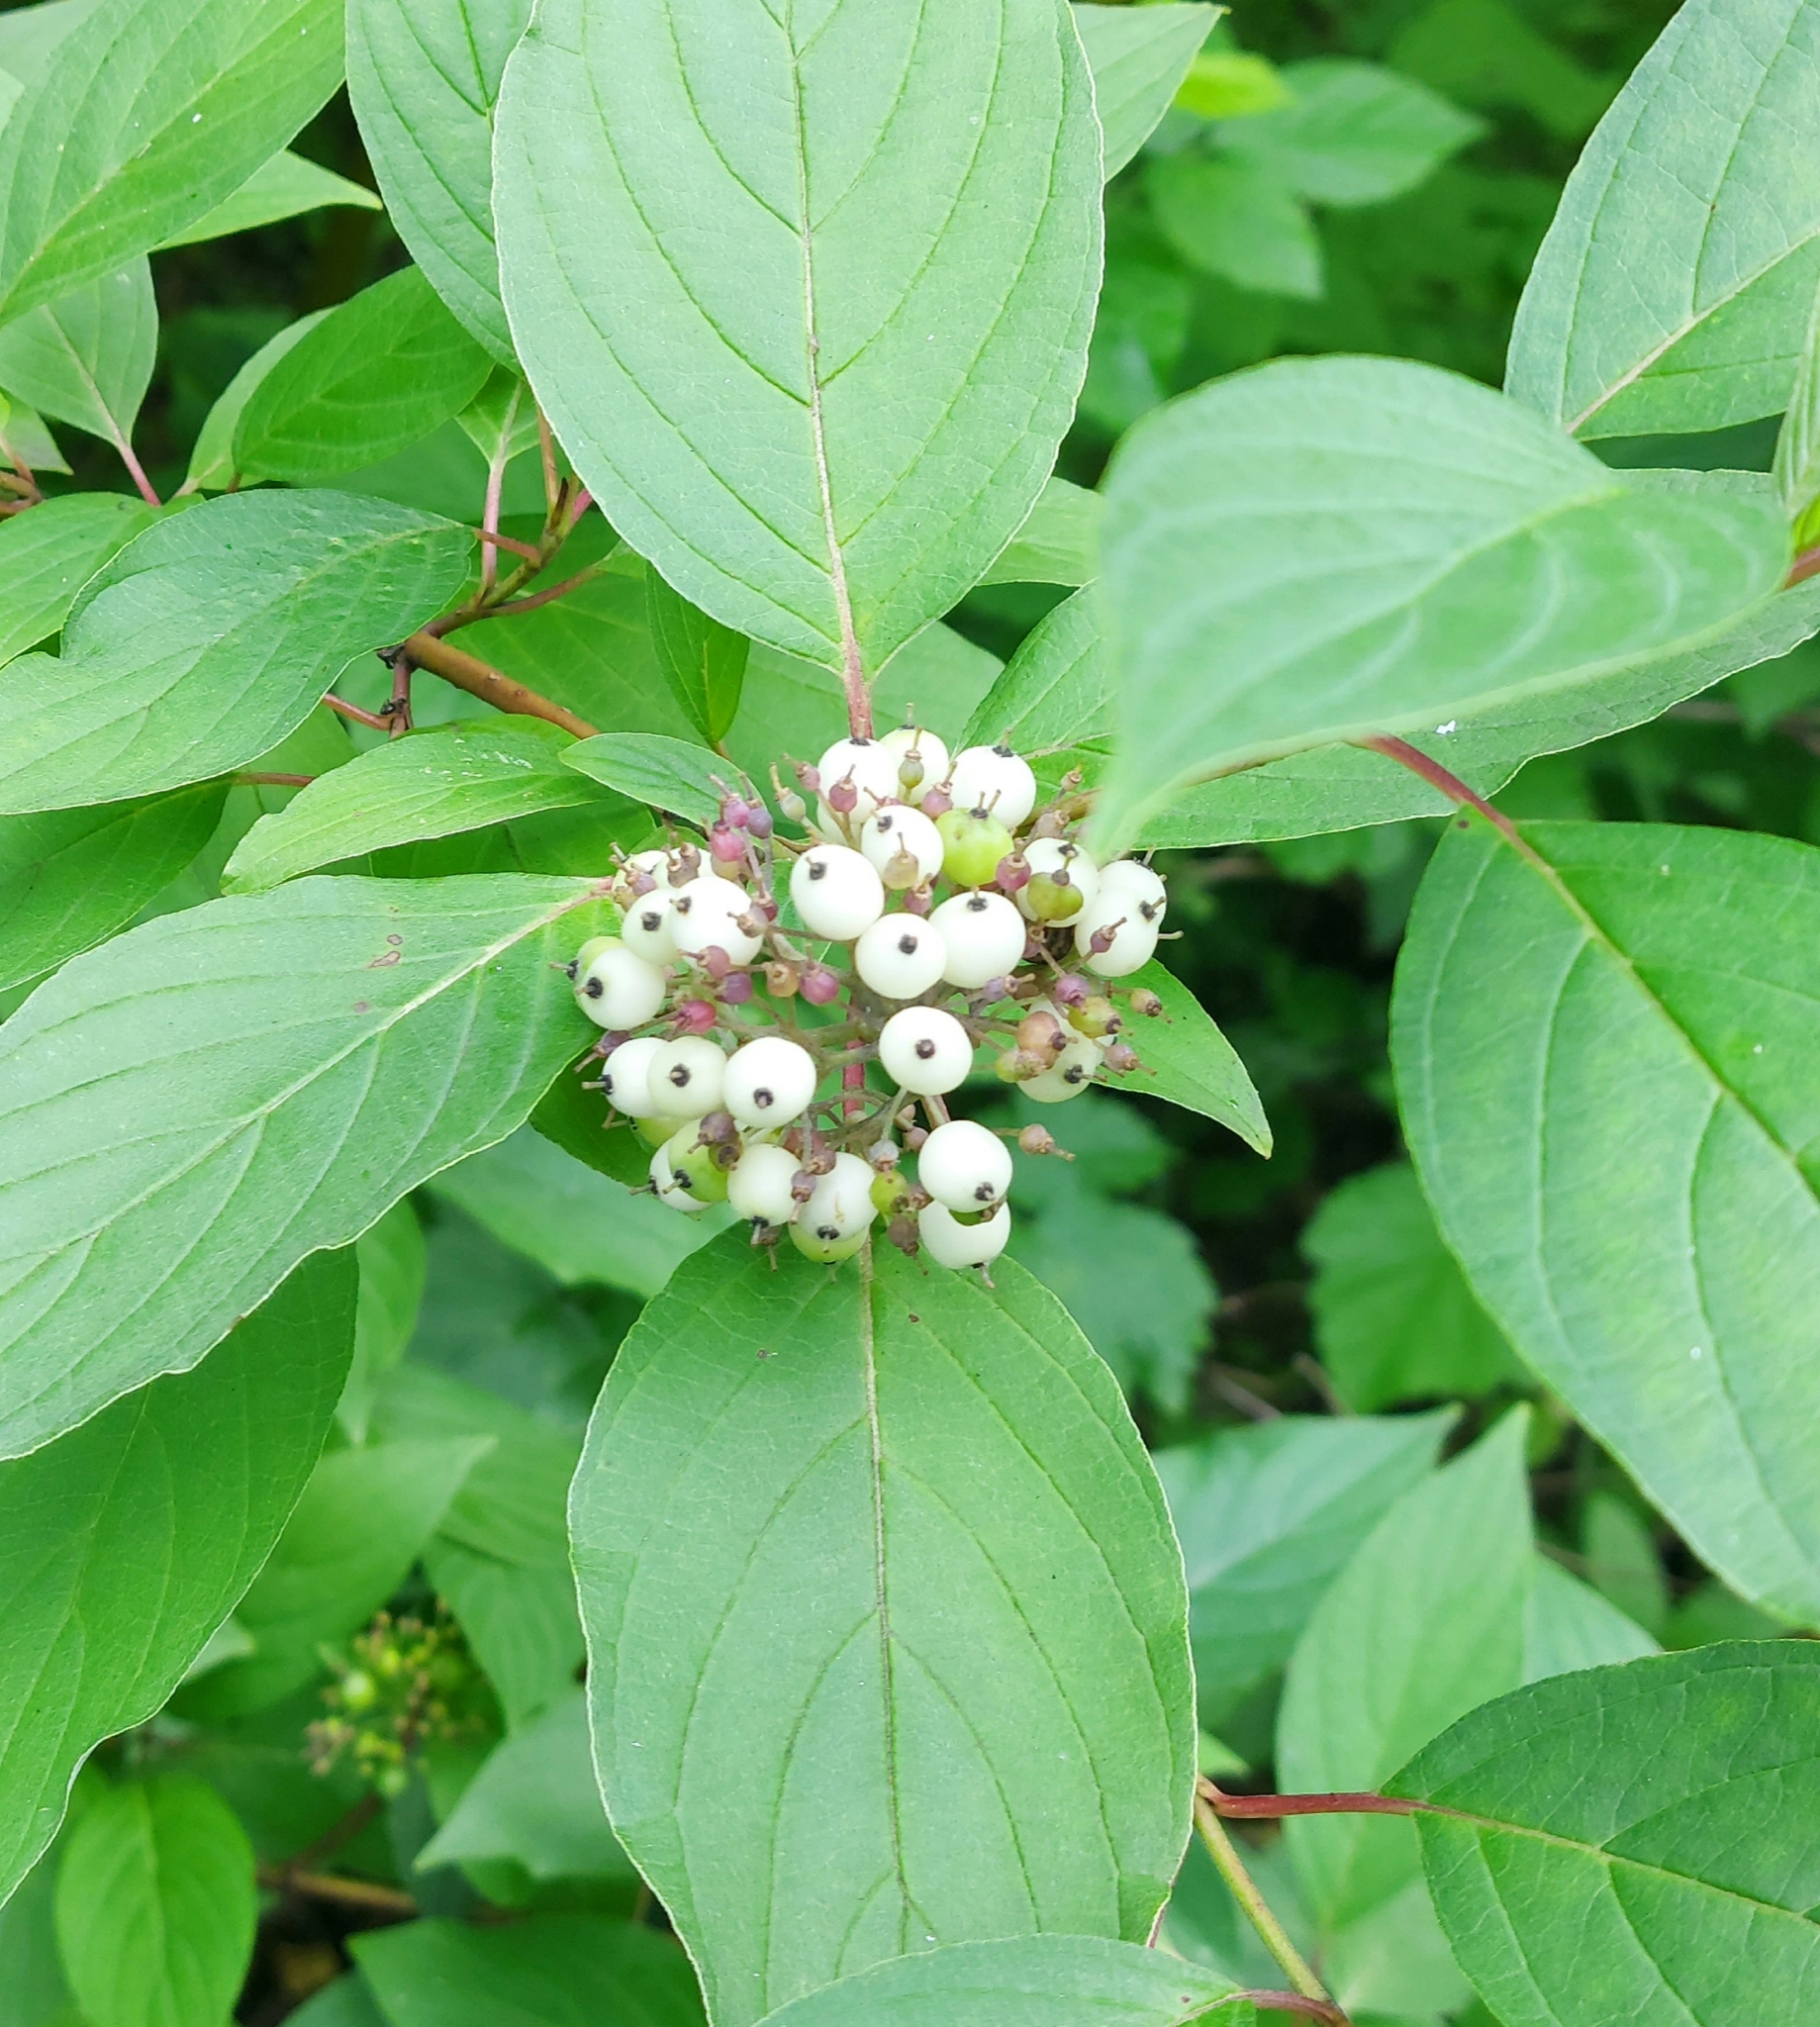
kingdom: Plantae
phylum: Tracheophyta
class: Magnoliopsida
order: Cornales
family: Cornaceae
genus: Cornus
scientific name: Cornus alba
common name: White dogwood
